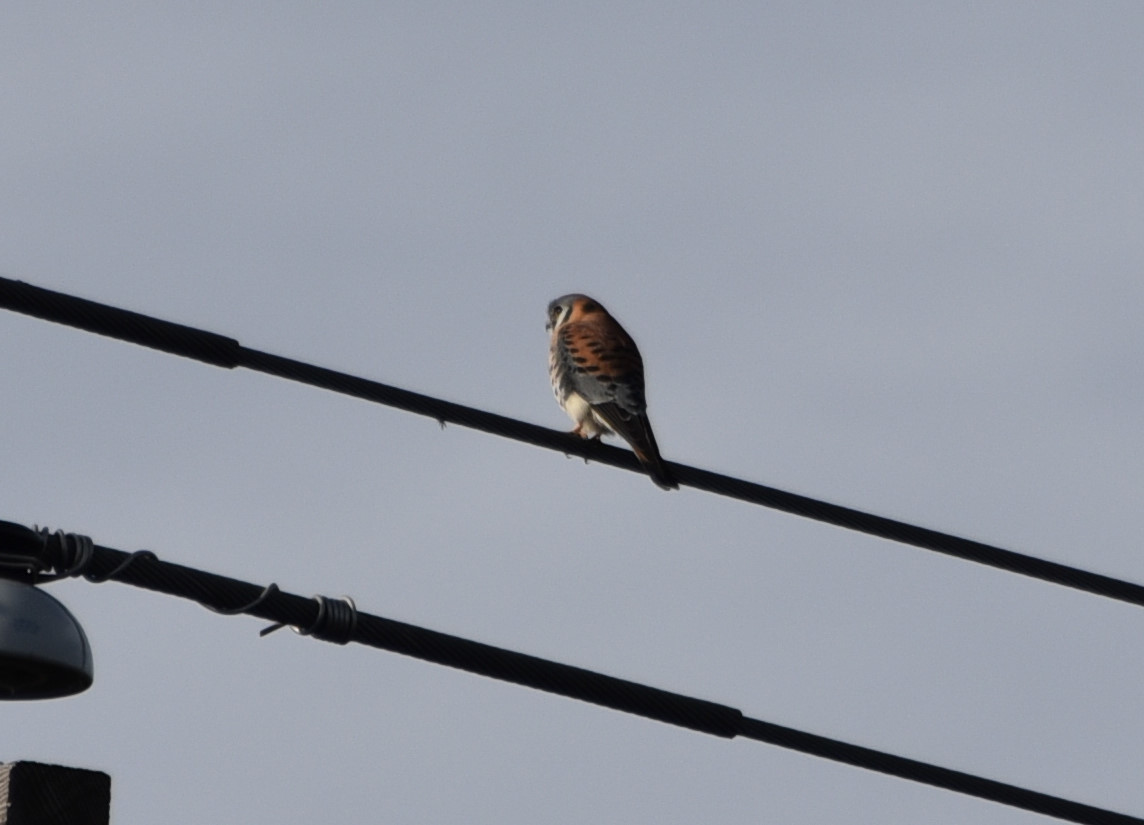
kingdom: Animalia
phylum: Chordata
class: Aves
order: Falconiformes
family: Falconidae
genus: Falco
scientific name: Falco sparverius
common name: American kestrel
